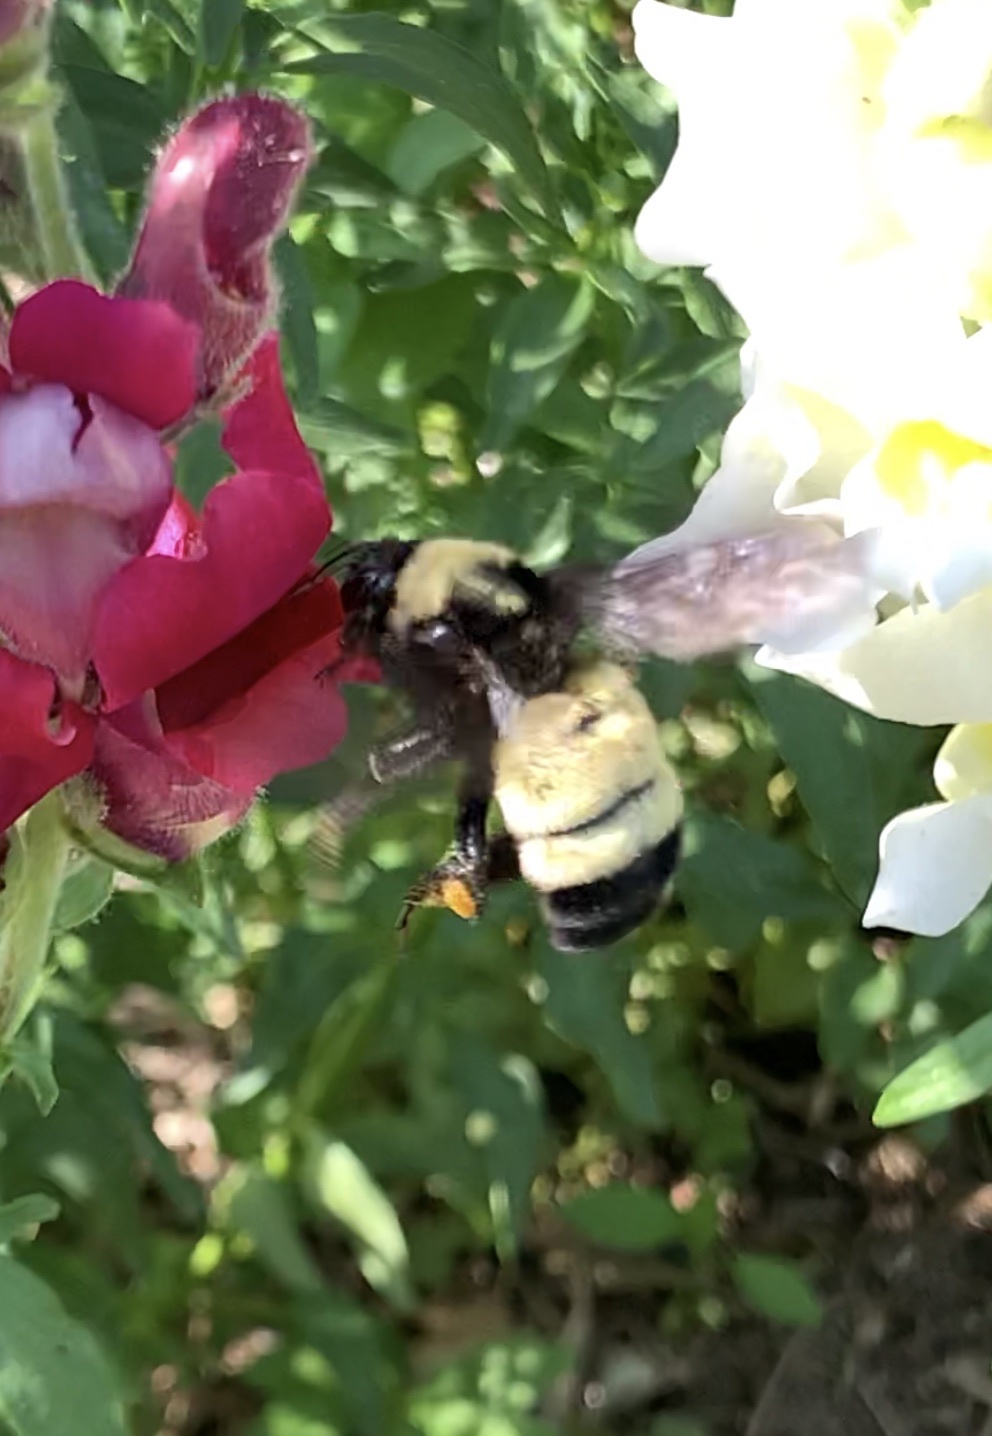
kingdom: Animalia
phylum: Arthropoda
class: Insecta
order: Hymenoptera
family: Apidae
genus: Bombus
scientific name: Bombus pensylvanicus
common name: Bumble bee
